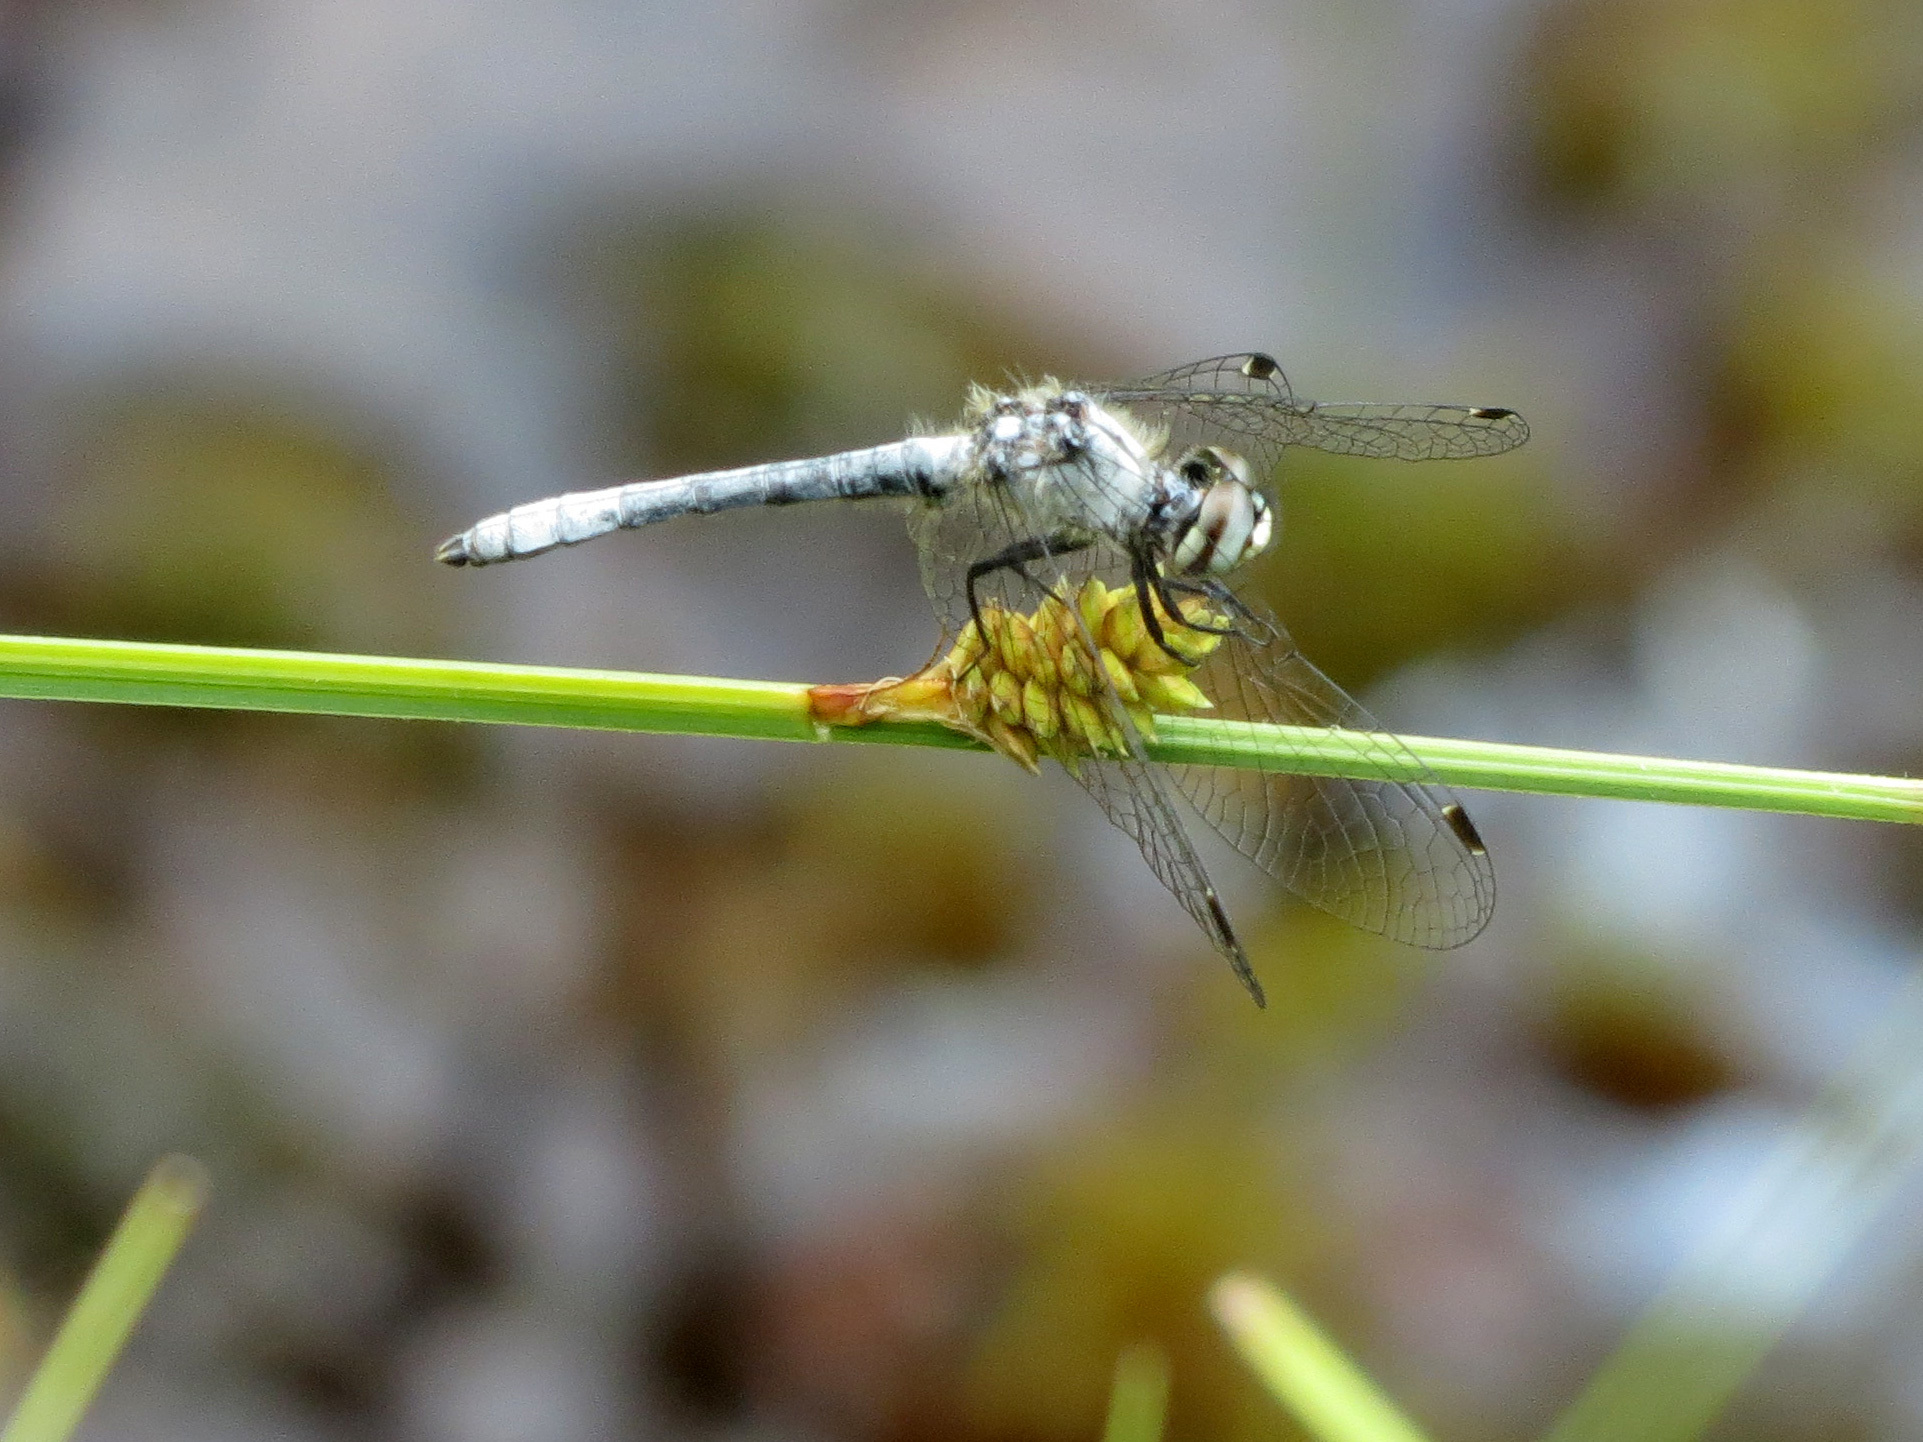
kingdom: Animalia
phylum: Arthropoda
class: Insecta
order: Odonata
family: Libellulidae
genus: Nannothemis
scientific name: Nannothemis bella
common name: Elfin skimmer
